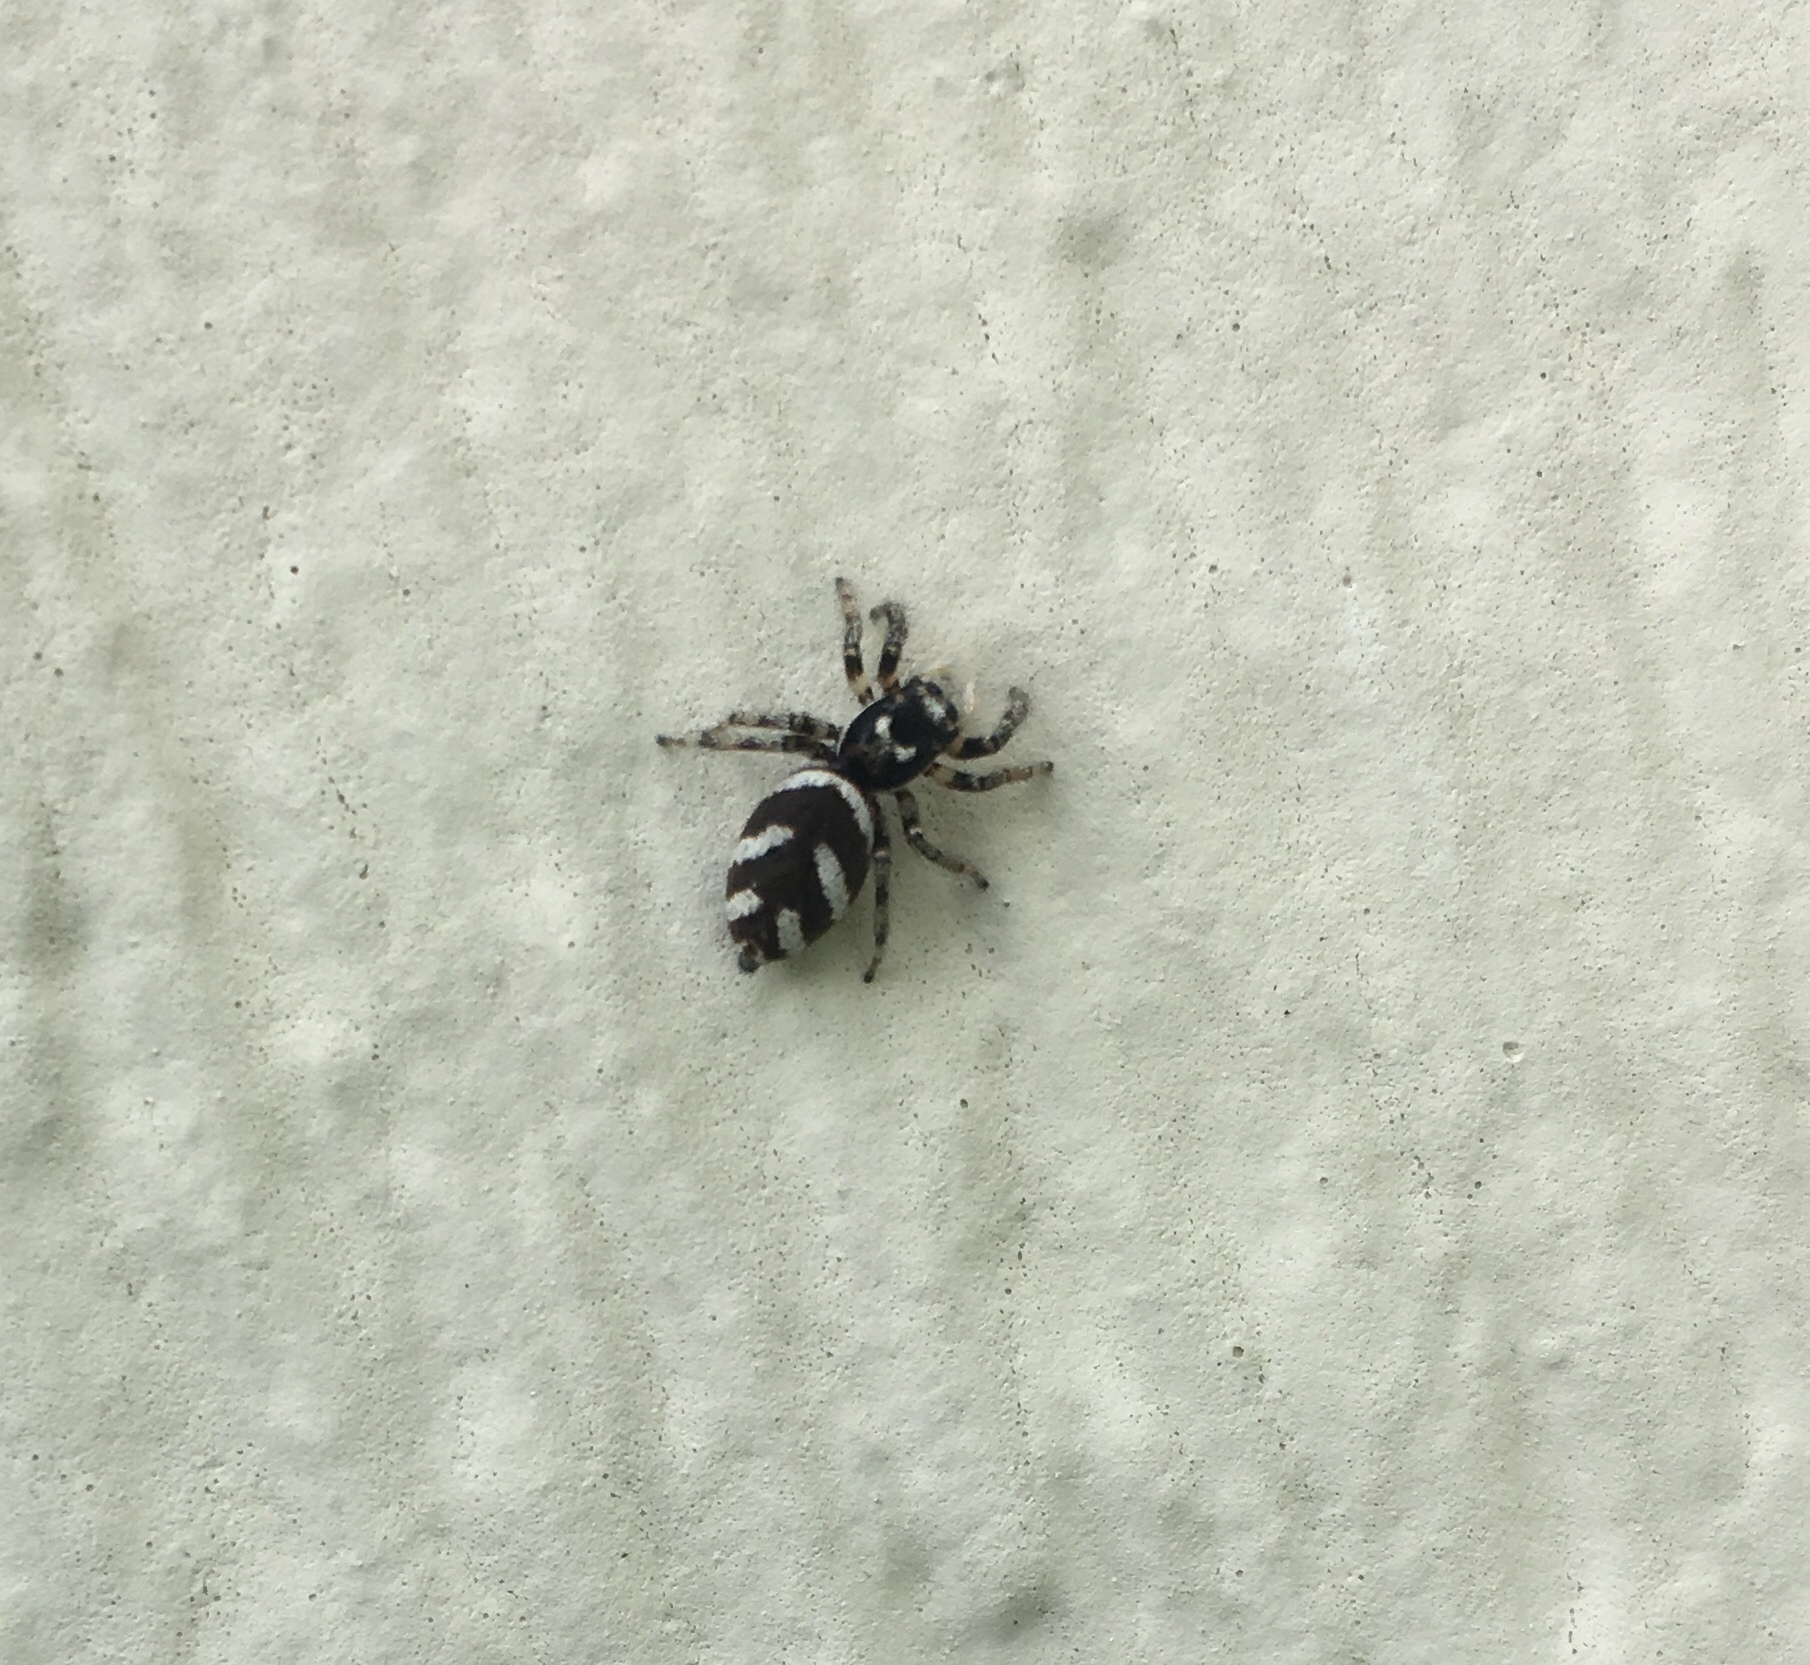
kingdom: Animalia
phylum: Arthropoda
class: Arachnida
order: Araneae
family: Salticidae
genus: Salticus
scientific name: Salticus scenicus
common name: Zebra jumper
